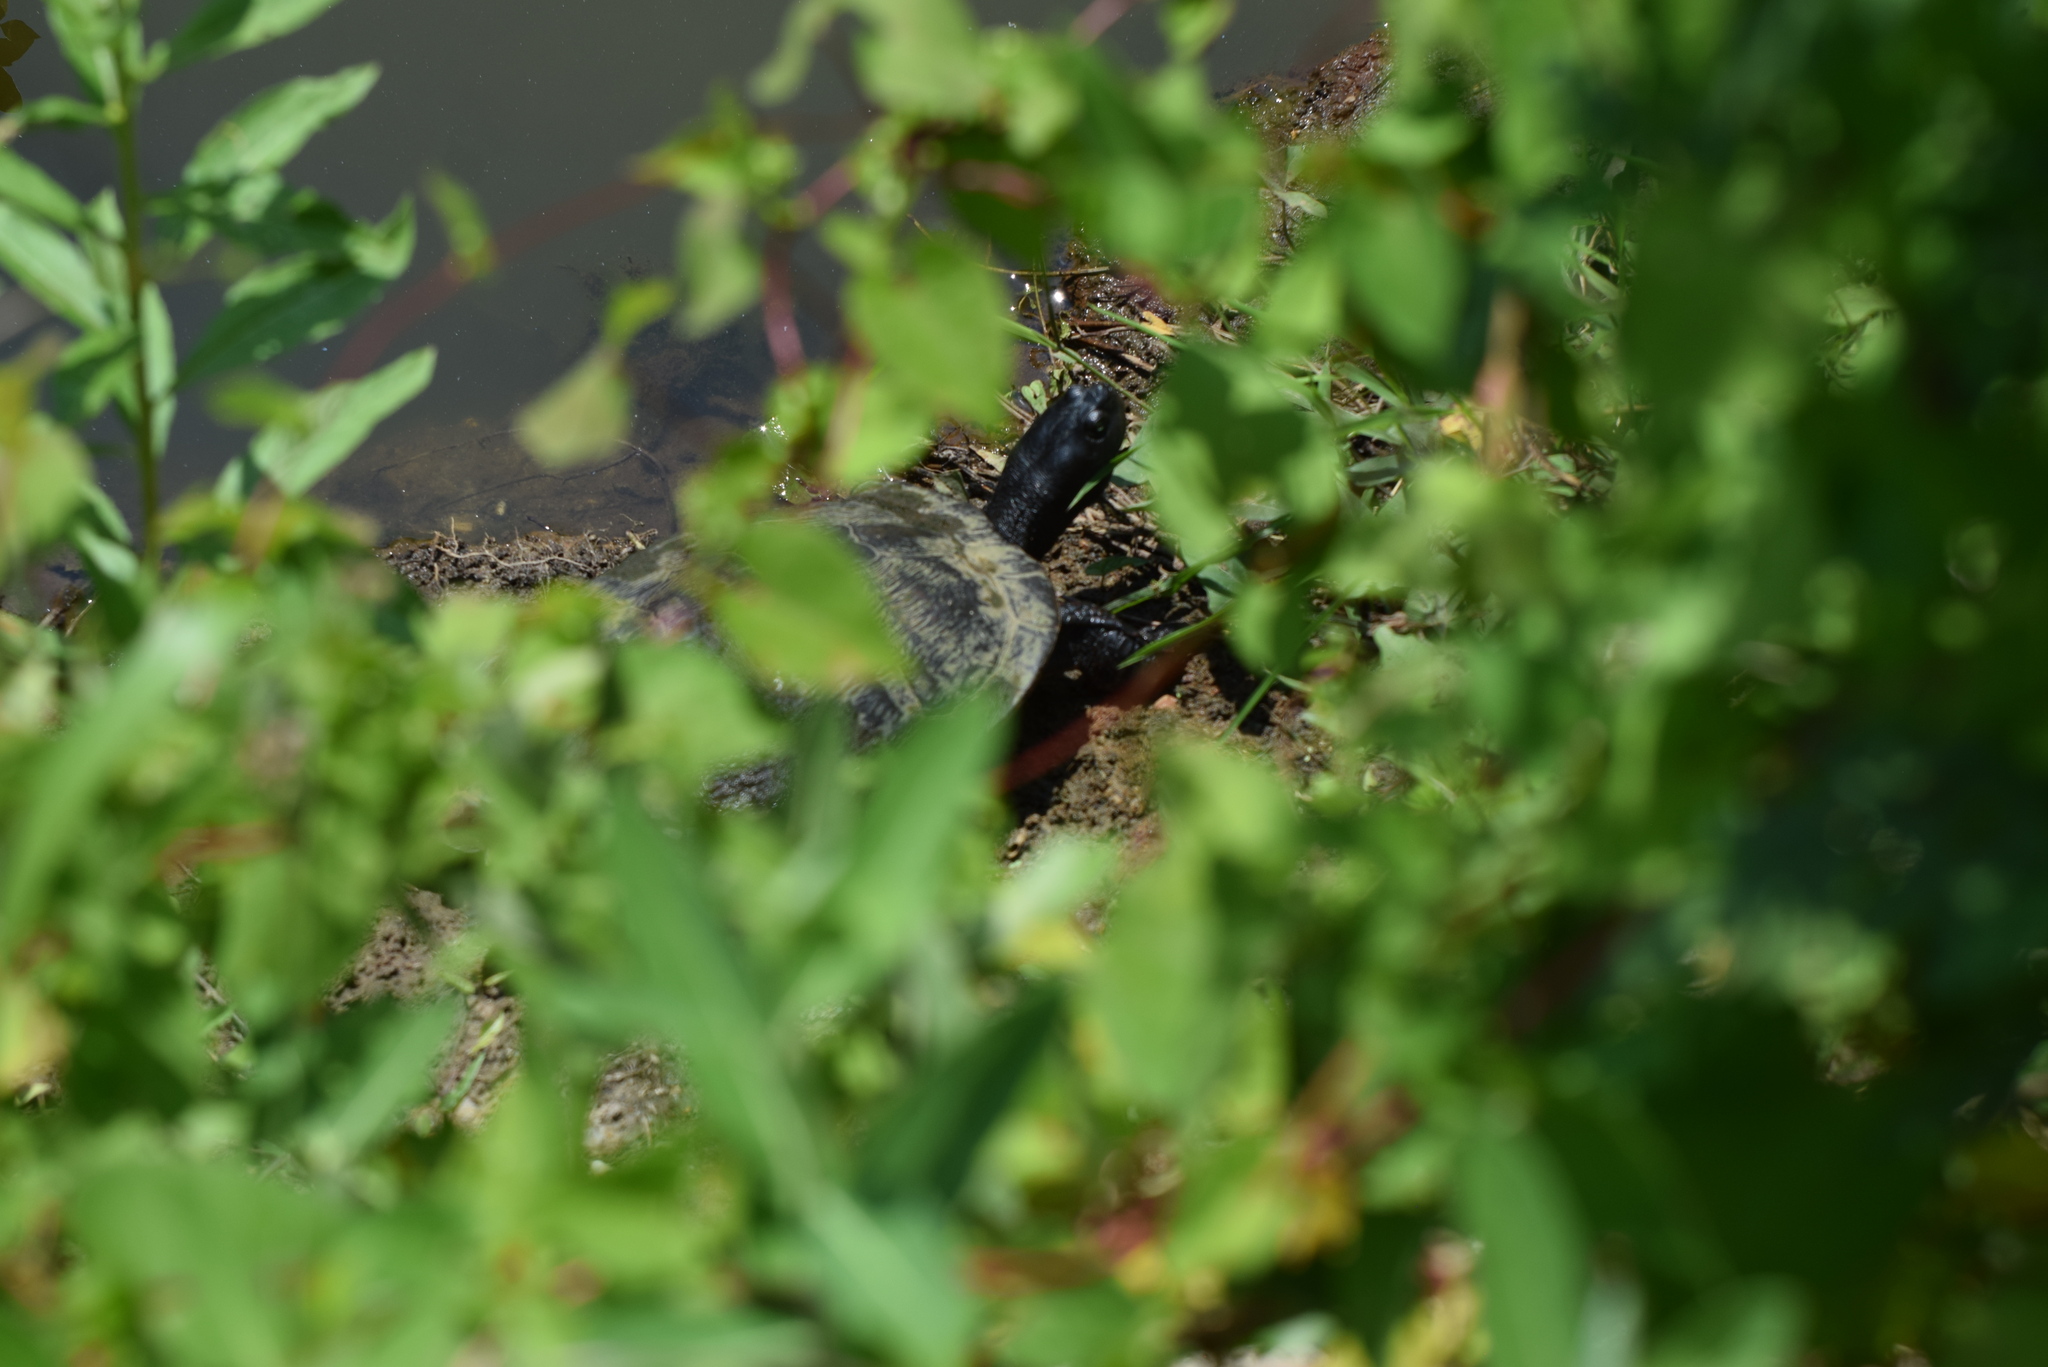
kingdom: Animalia
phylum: Chordata
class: Testudines
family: Emydidae
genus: Pseudemys
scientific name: Pseudemys rubriventris
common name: American red-bellied turtle
